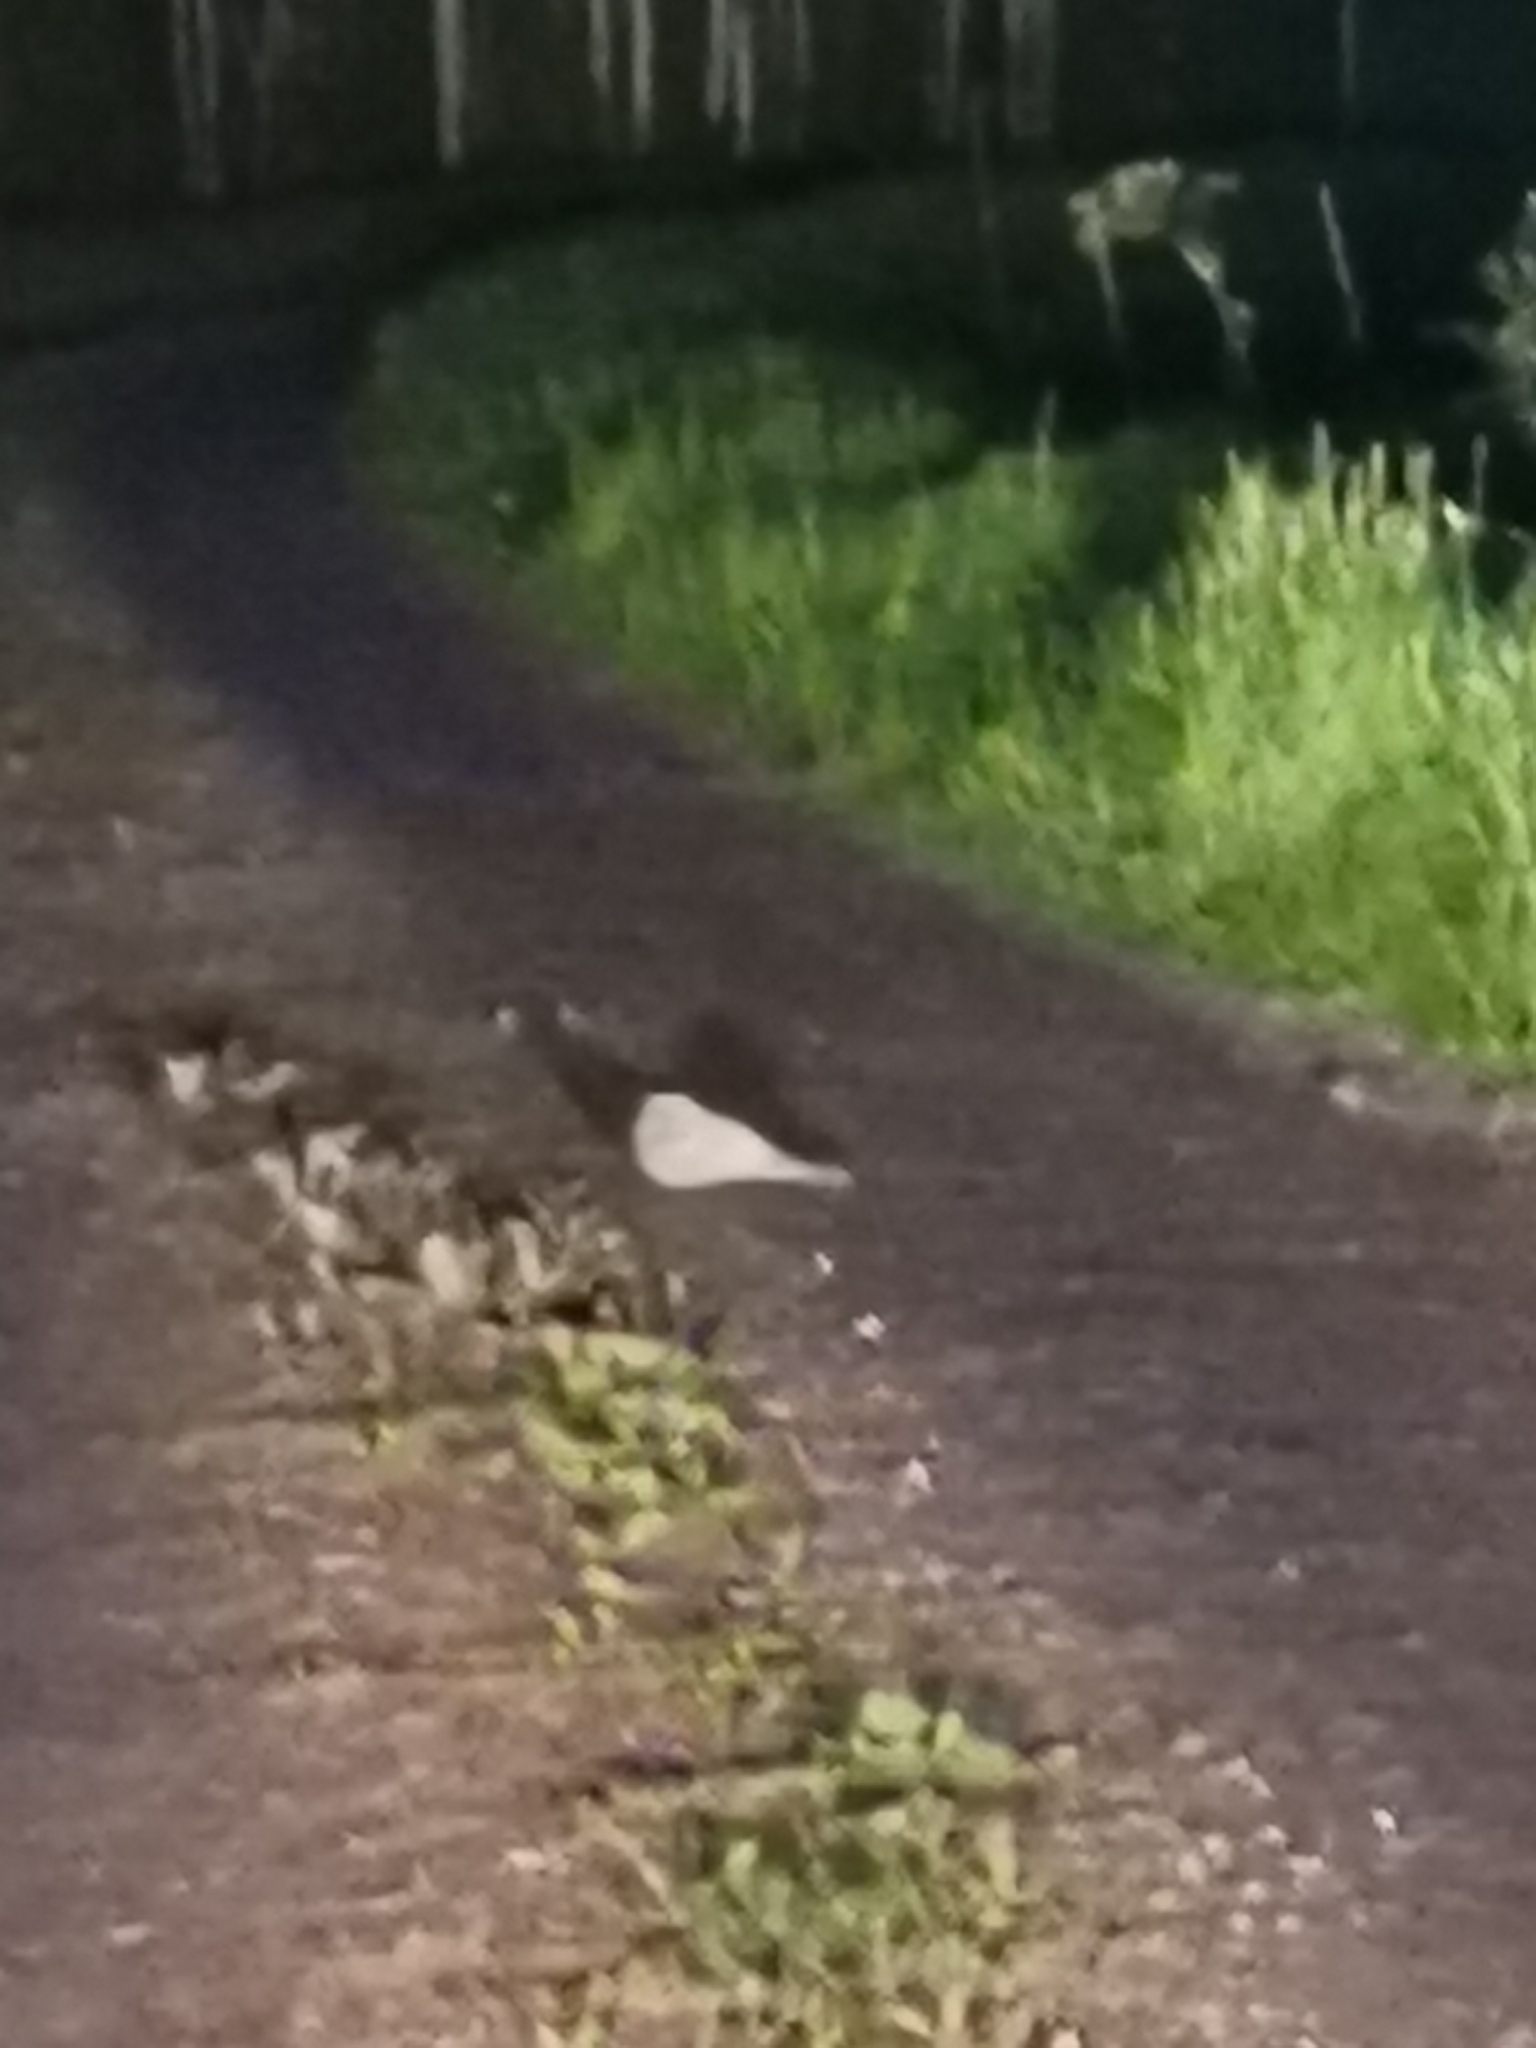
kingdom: Animalia
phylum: Chordata
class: Aves
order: Caprimulgiformes
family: Caprimulgidae
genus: Caprimulgus
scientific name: Caprimulgus europaeus
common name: European nightjar
